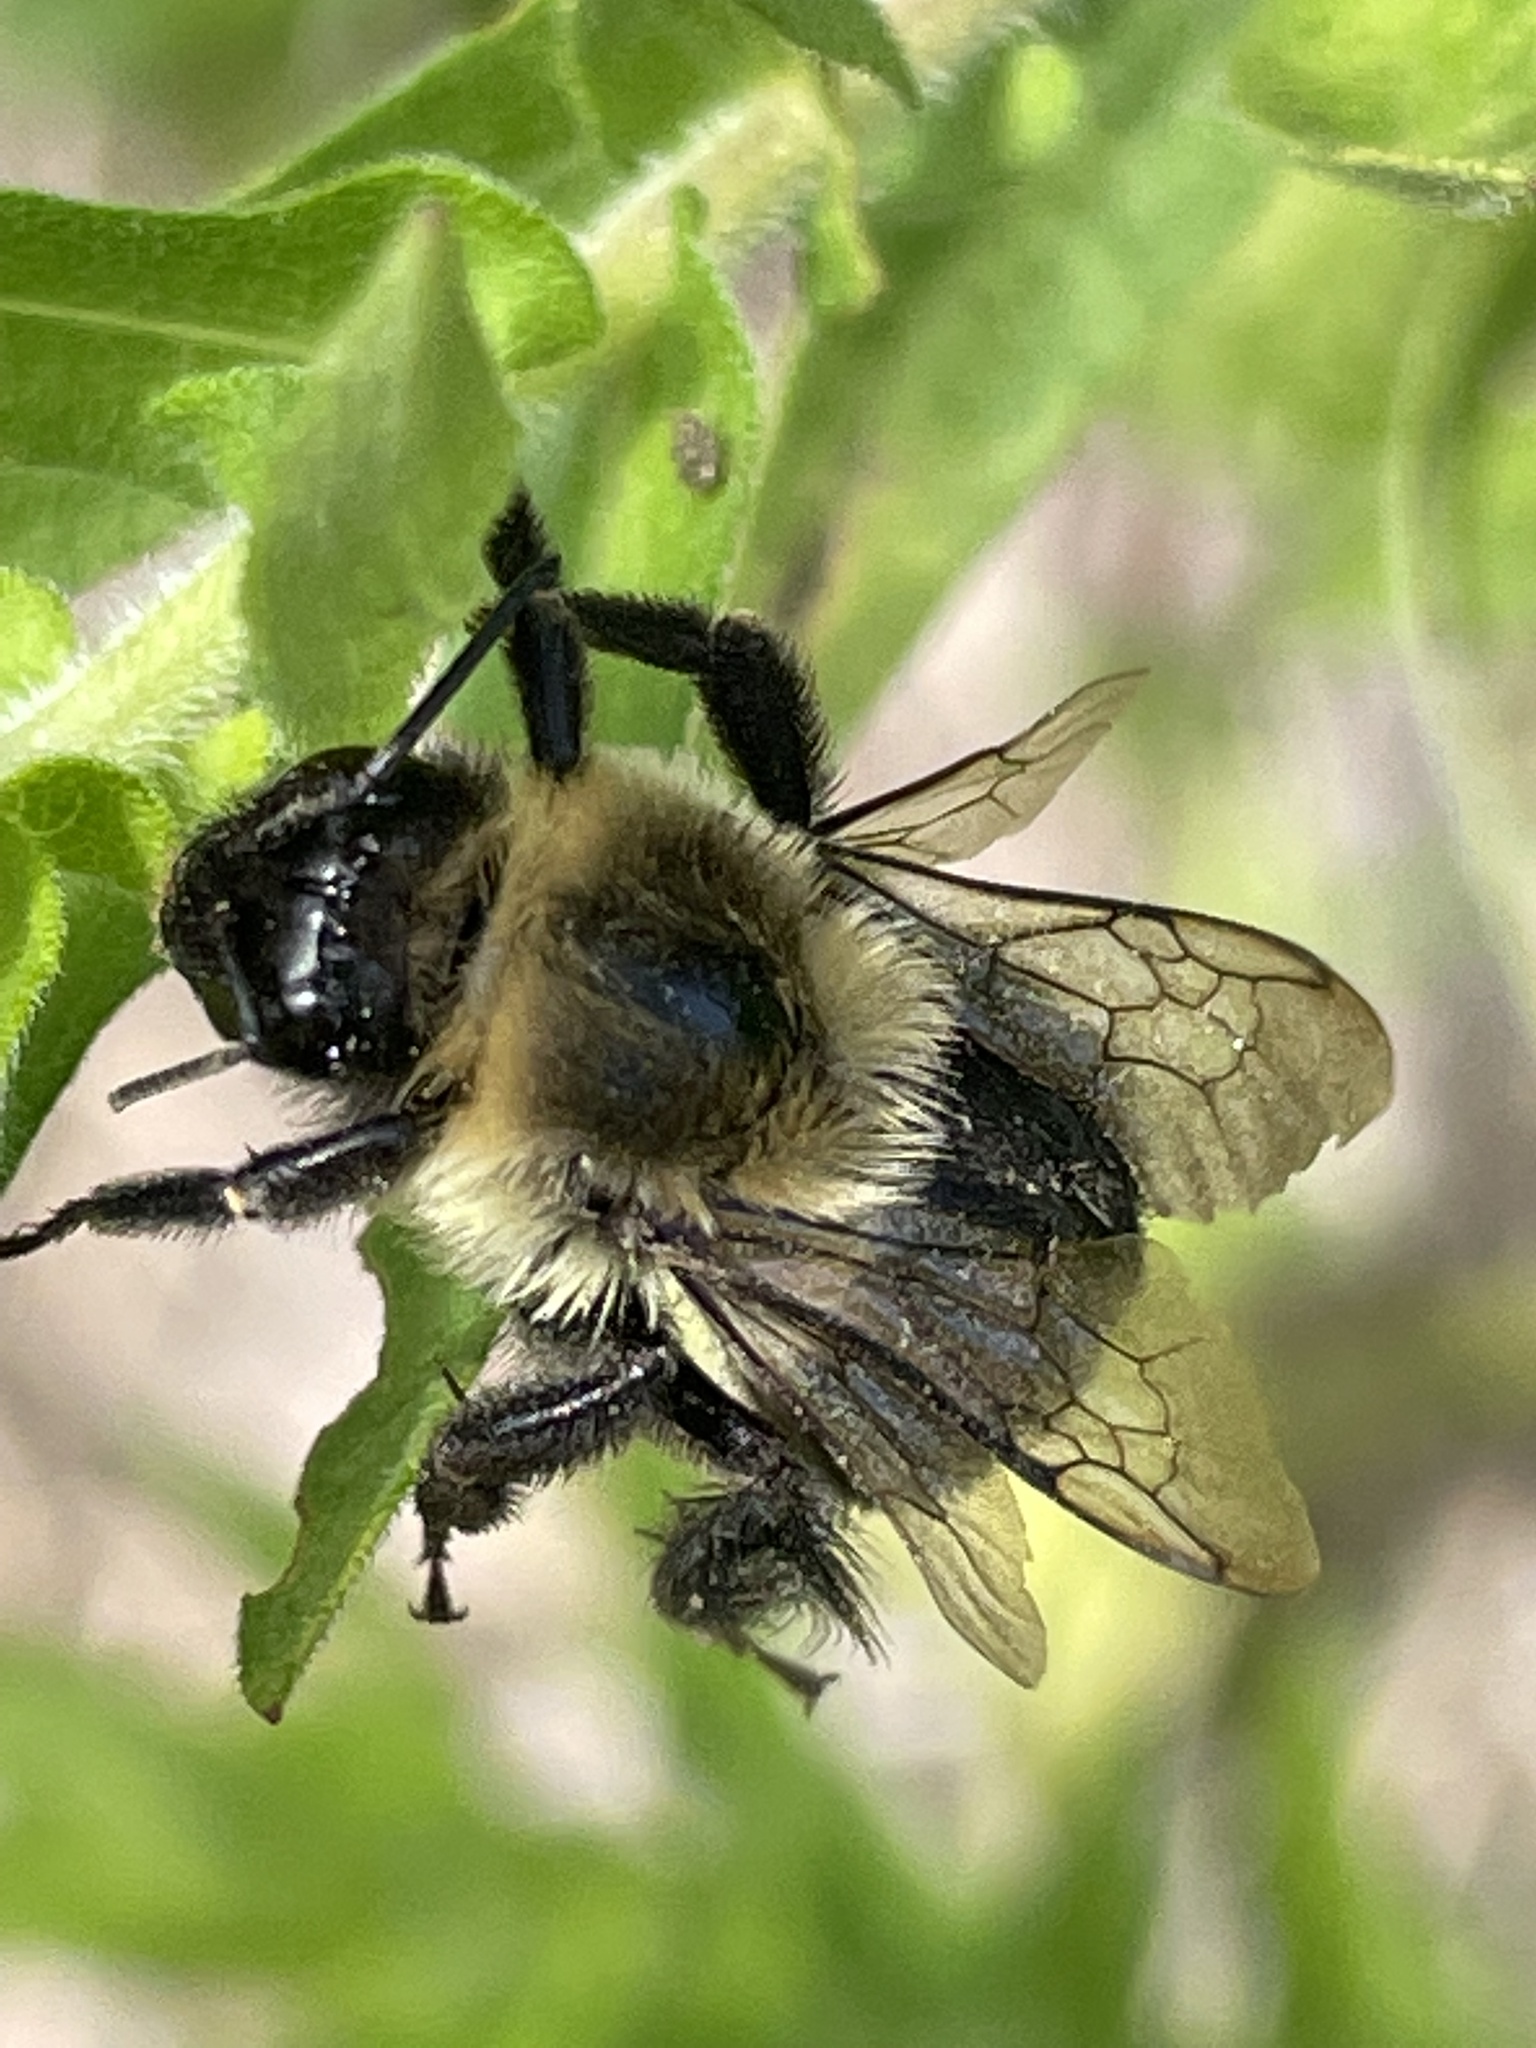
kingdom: Animalia
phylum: Arthropoda
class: Insecta
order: Hymenoptera
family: Apidae
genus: Bombus
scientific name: Bombus impatiens
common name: Common eastern bumble bee
